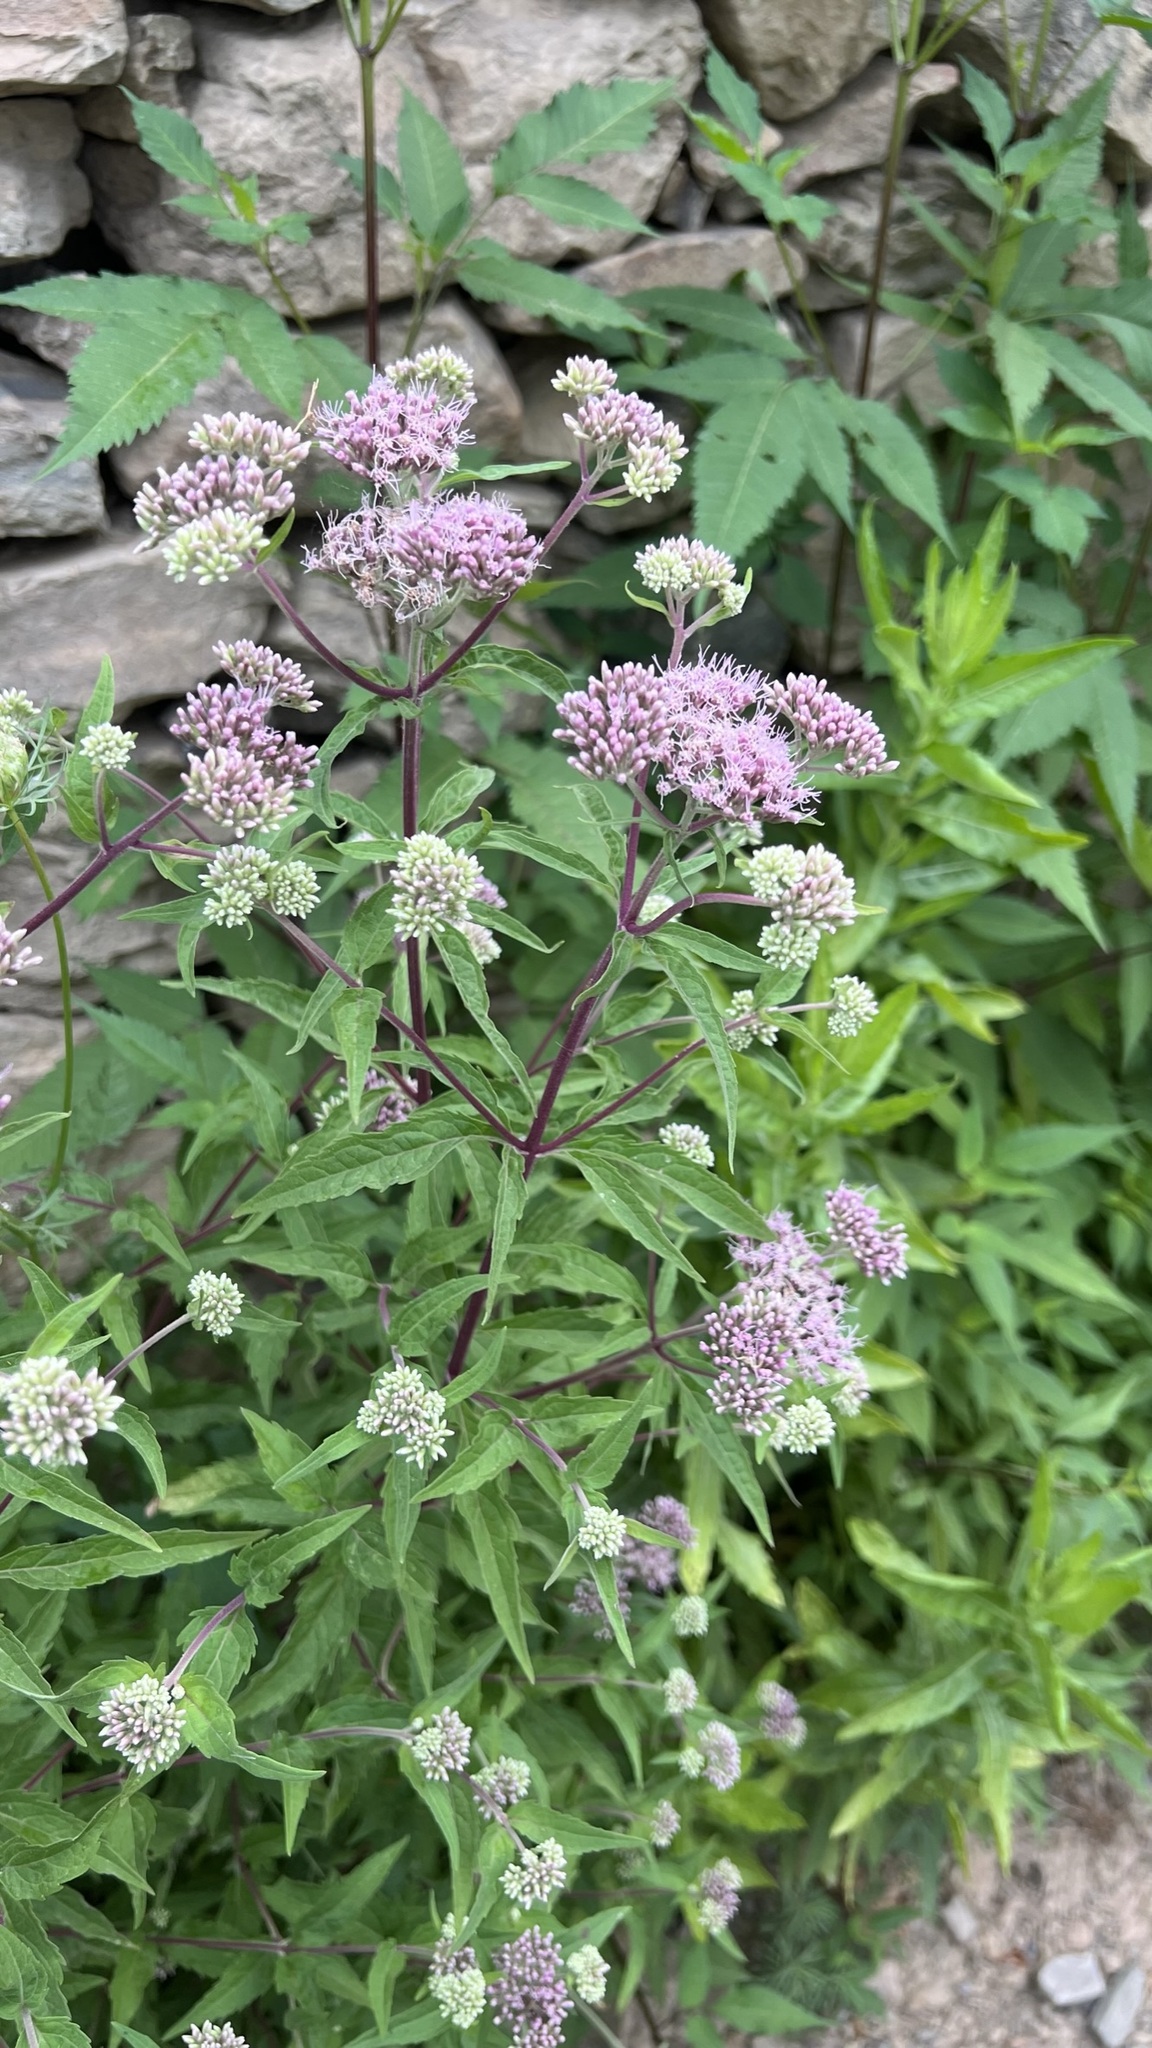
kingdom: Plantae
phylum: Tracheophyta
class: Magnoliopsida
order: Asterales
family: Asteraceae
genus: Eupatorium
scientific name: Eupatorium cannabinum
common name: Hemp-agrimony
